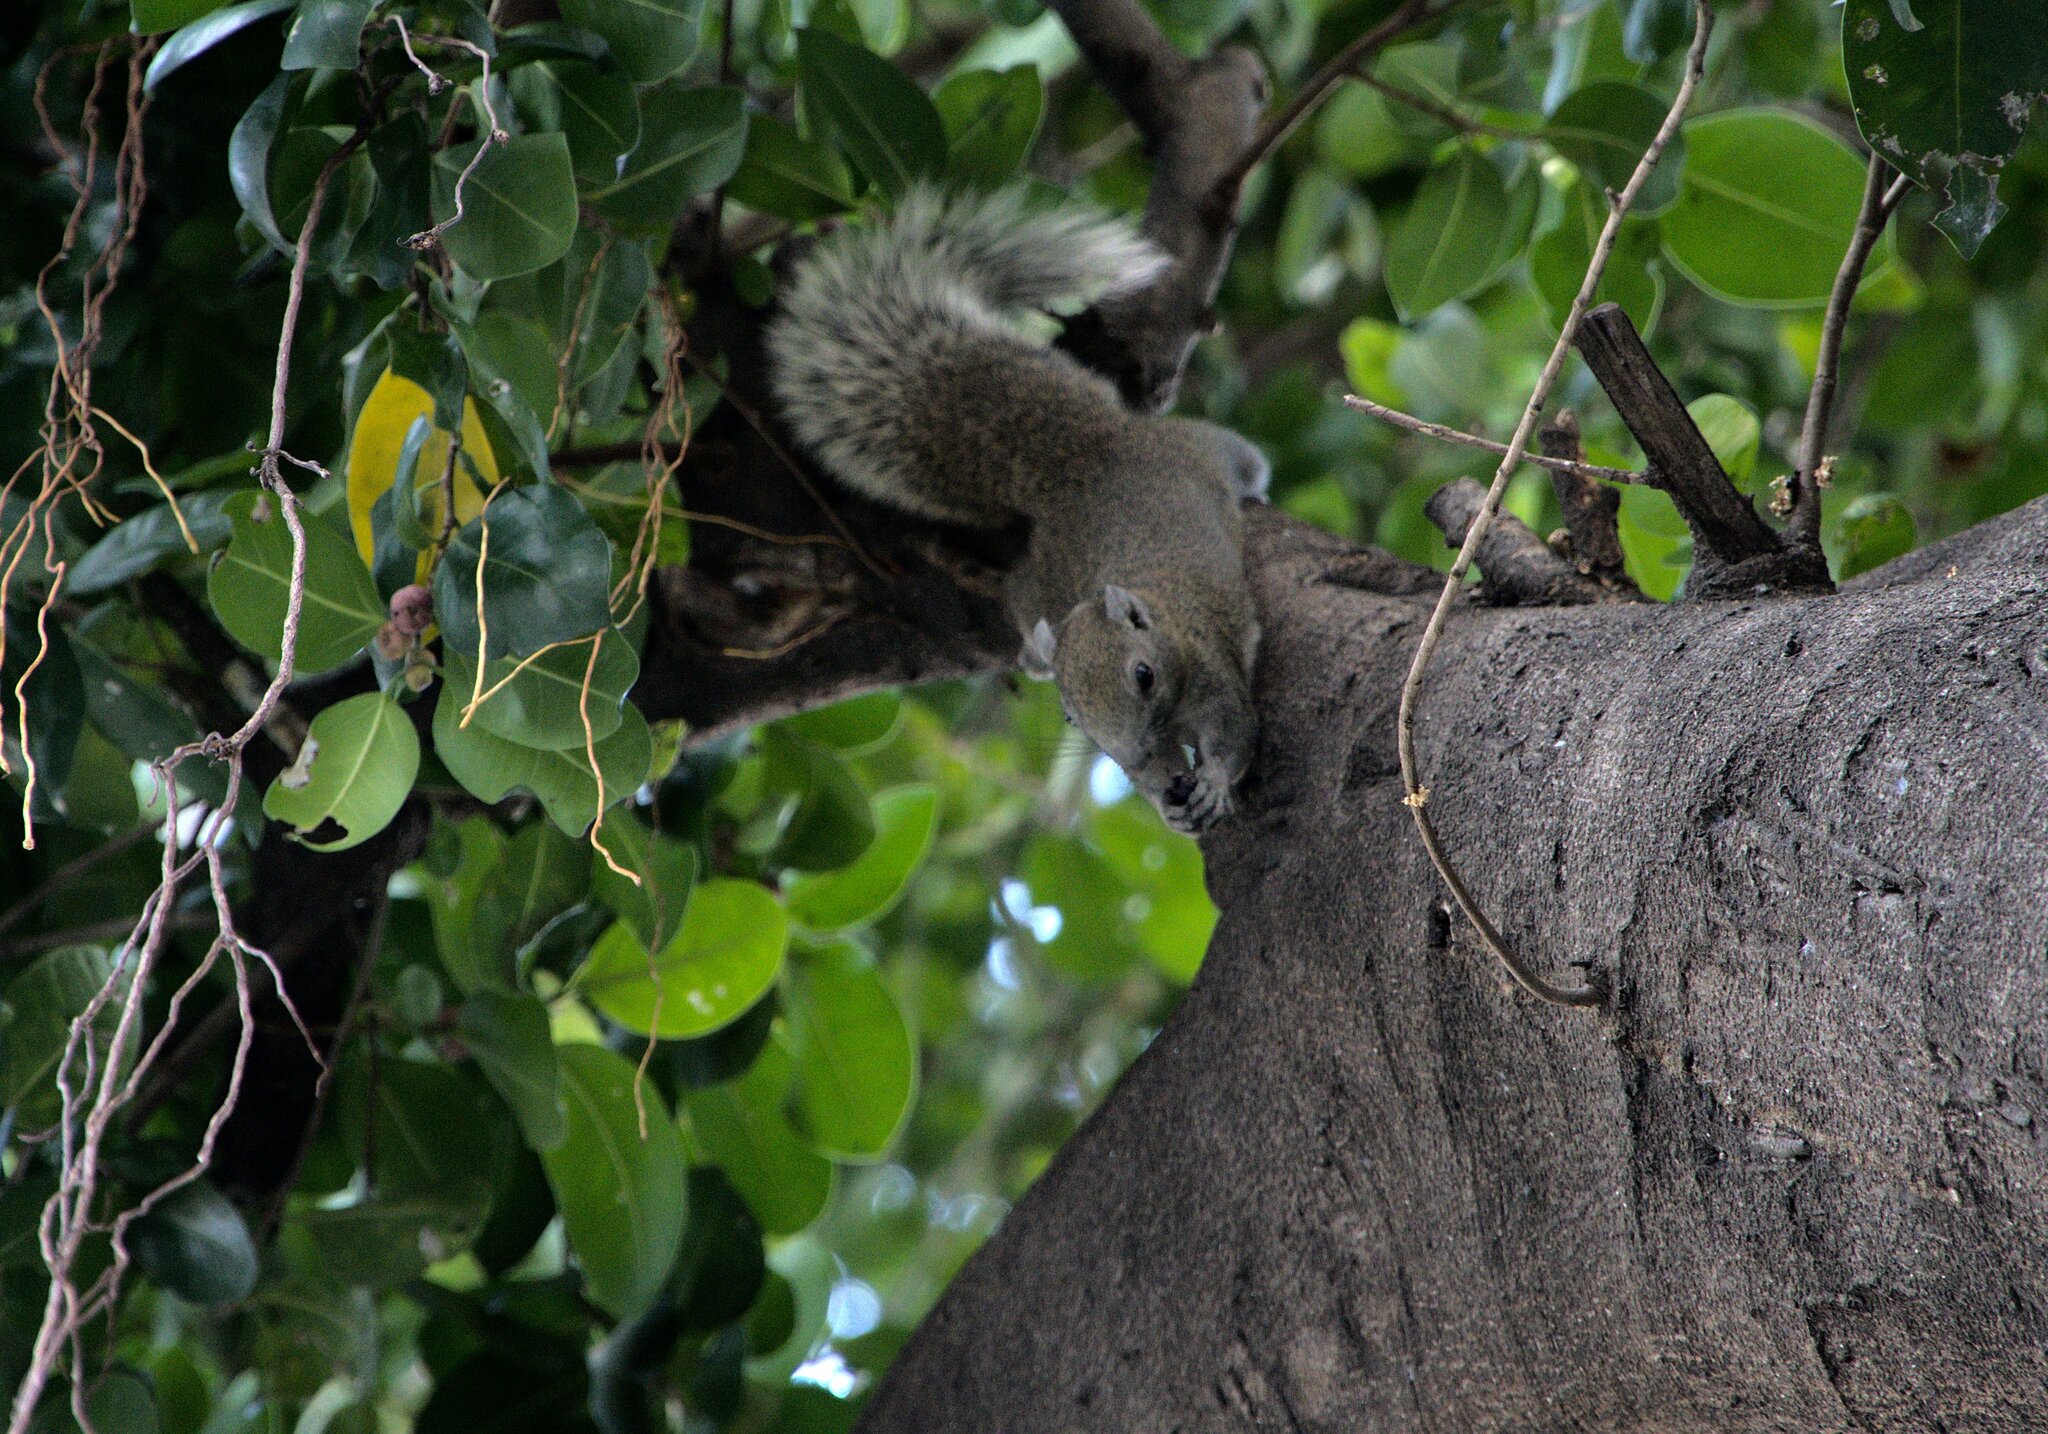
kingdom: Animalia
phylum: Chordata
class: Mammalia
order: Rodentia
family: Sciuridae
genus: Callosciurus
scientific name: Callosciurus finlaysonii
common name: Finlayson's squirrel
